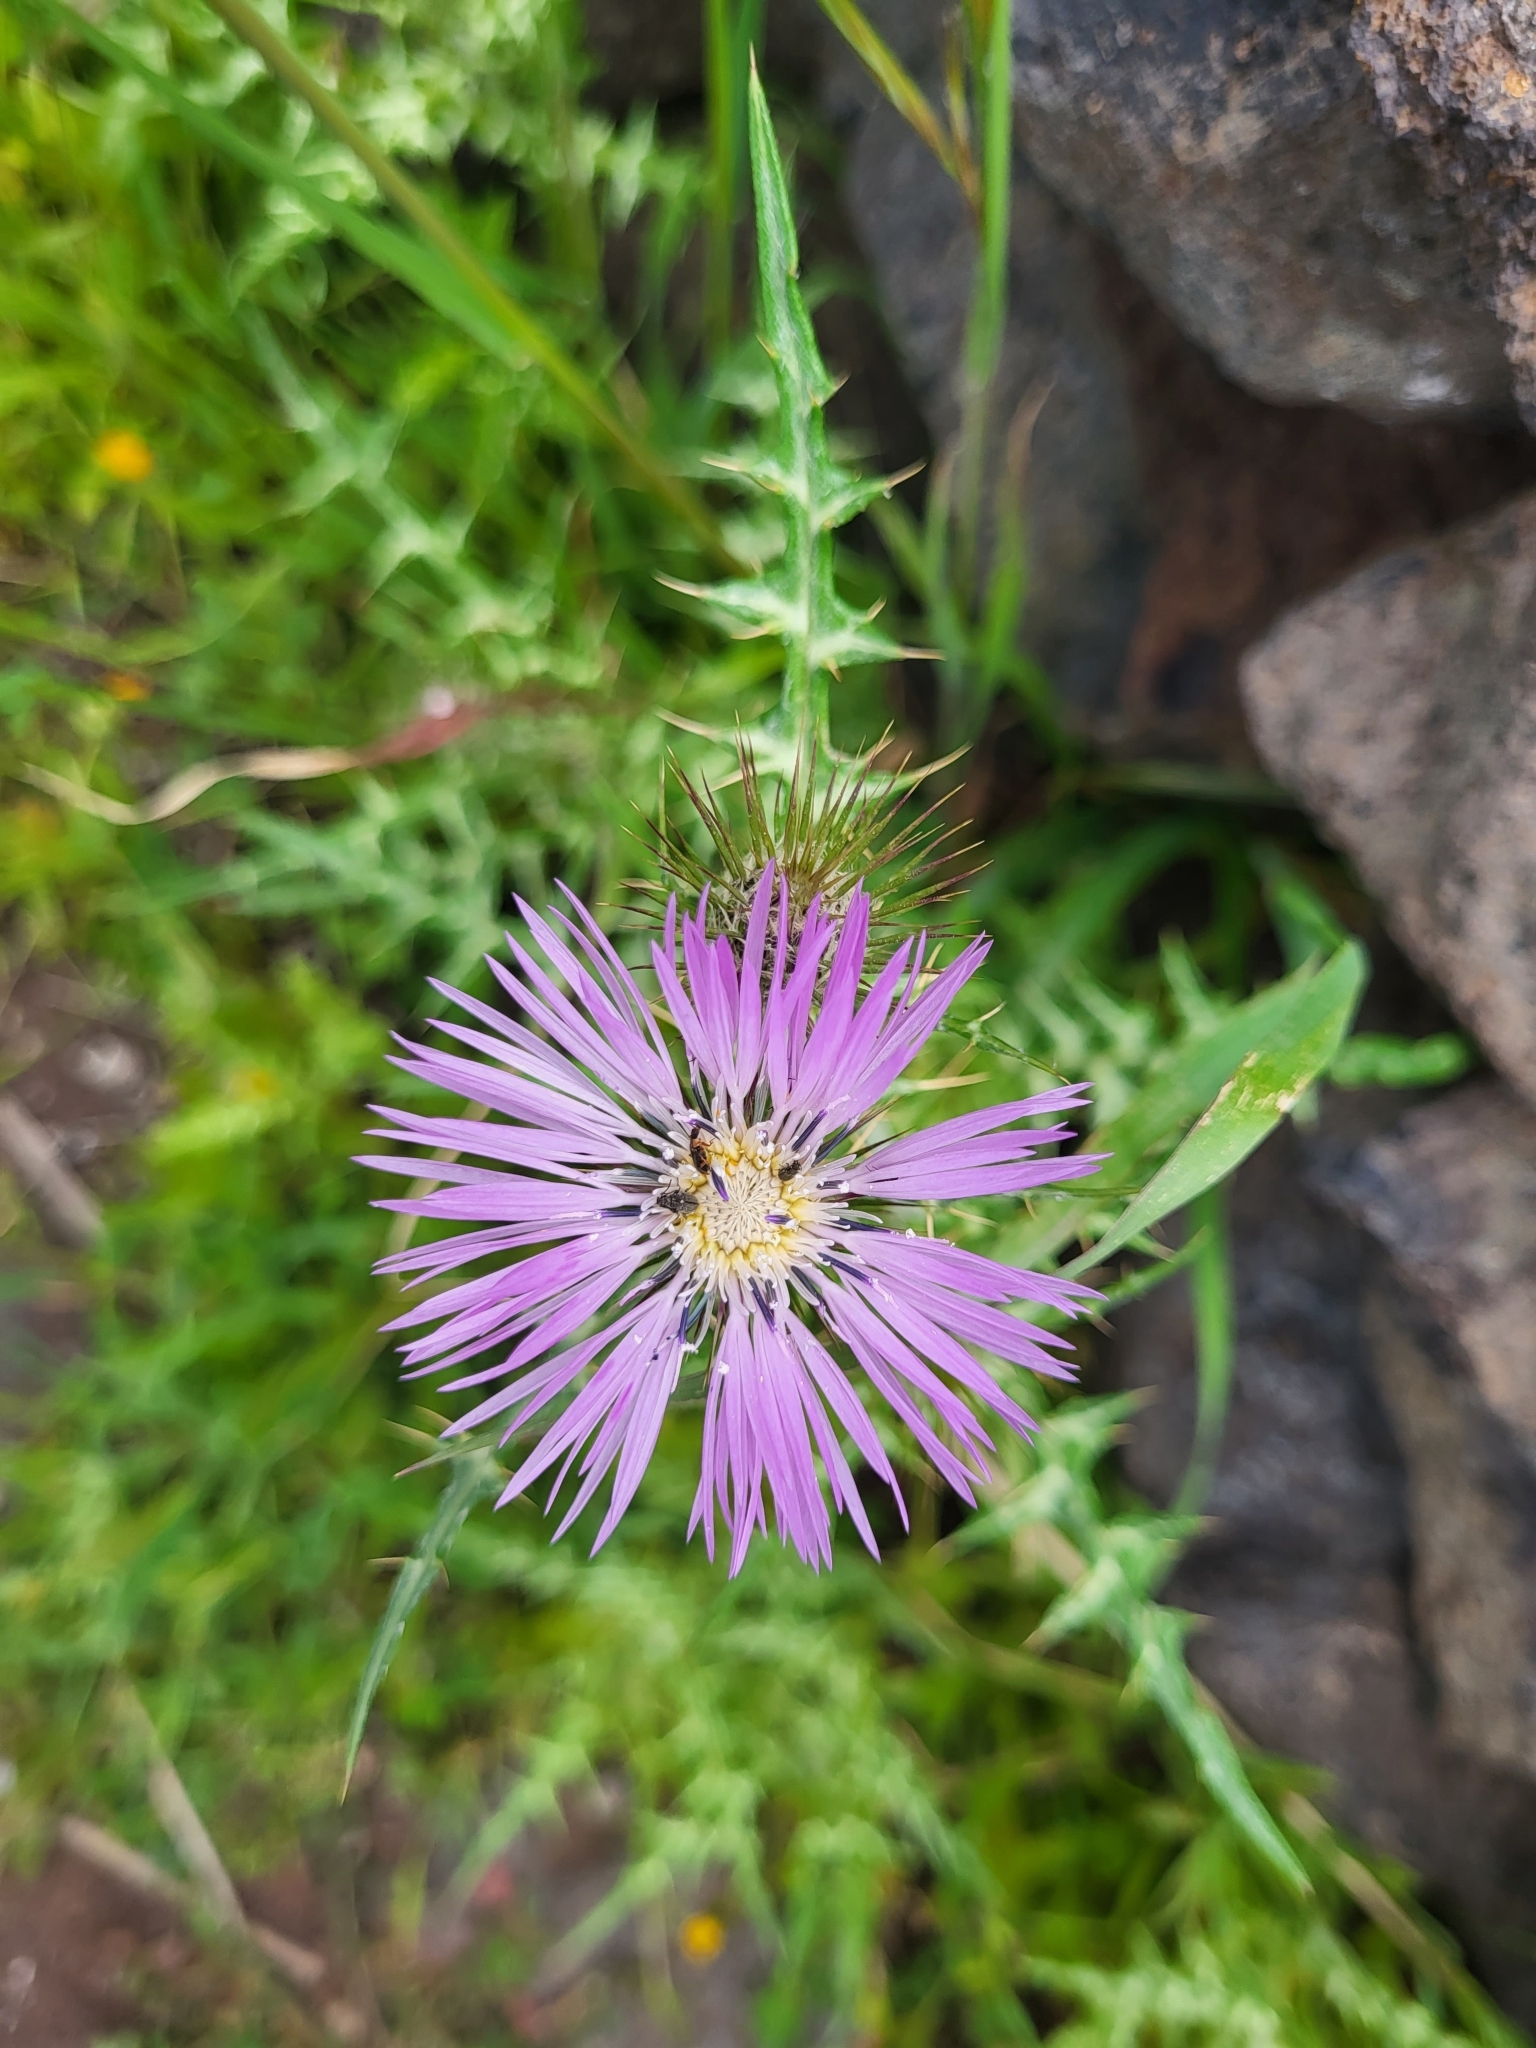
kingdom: Plantae
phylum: Tracheophyta
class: Magnoliopsida
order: Asterales
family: Asteraceae
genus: Galactites
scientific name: Galactites tomentosa
